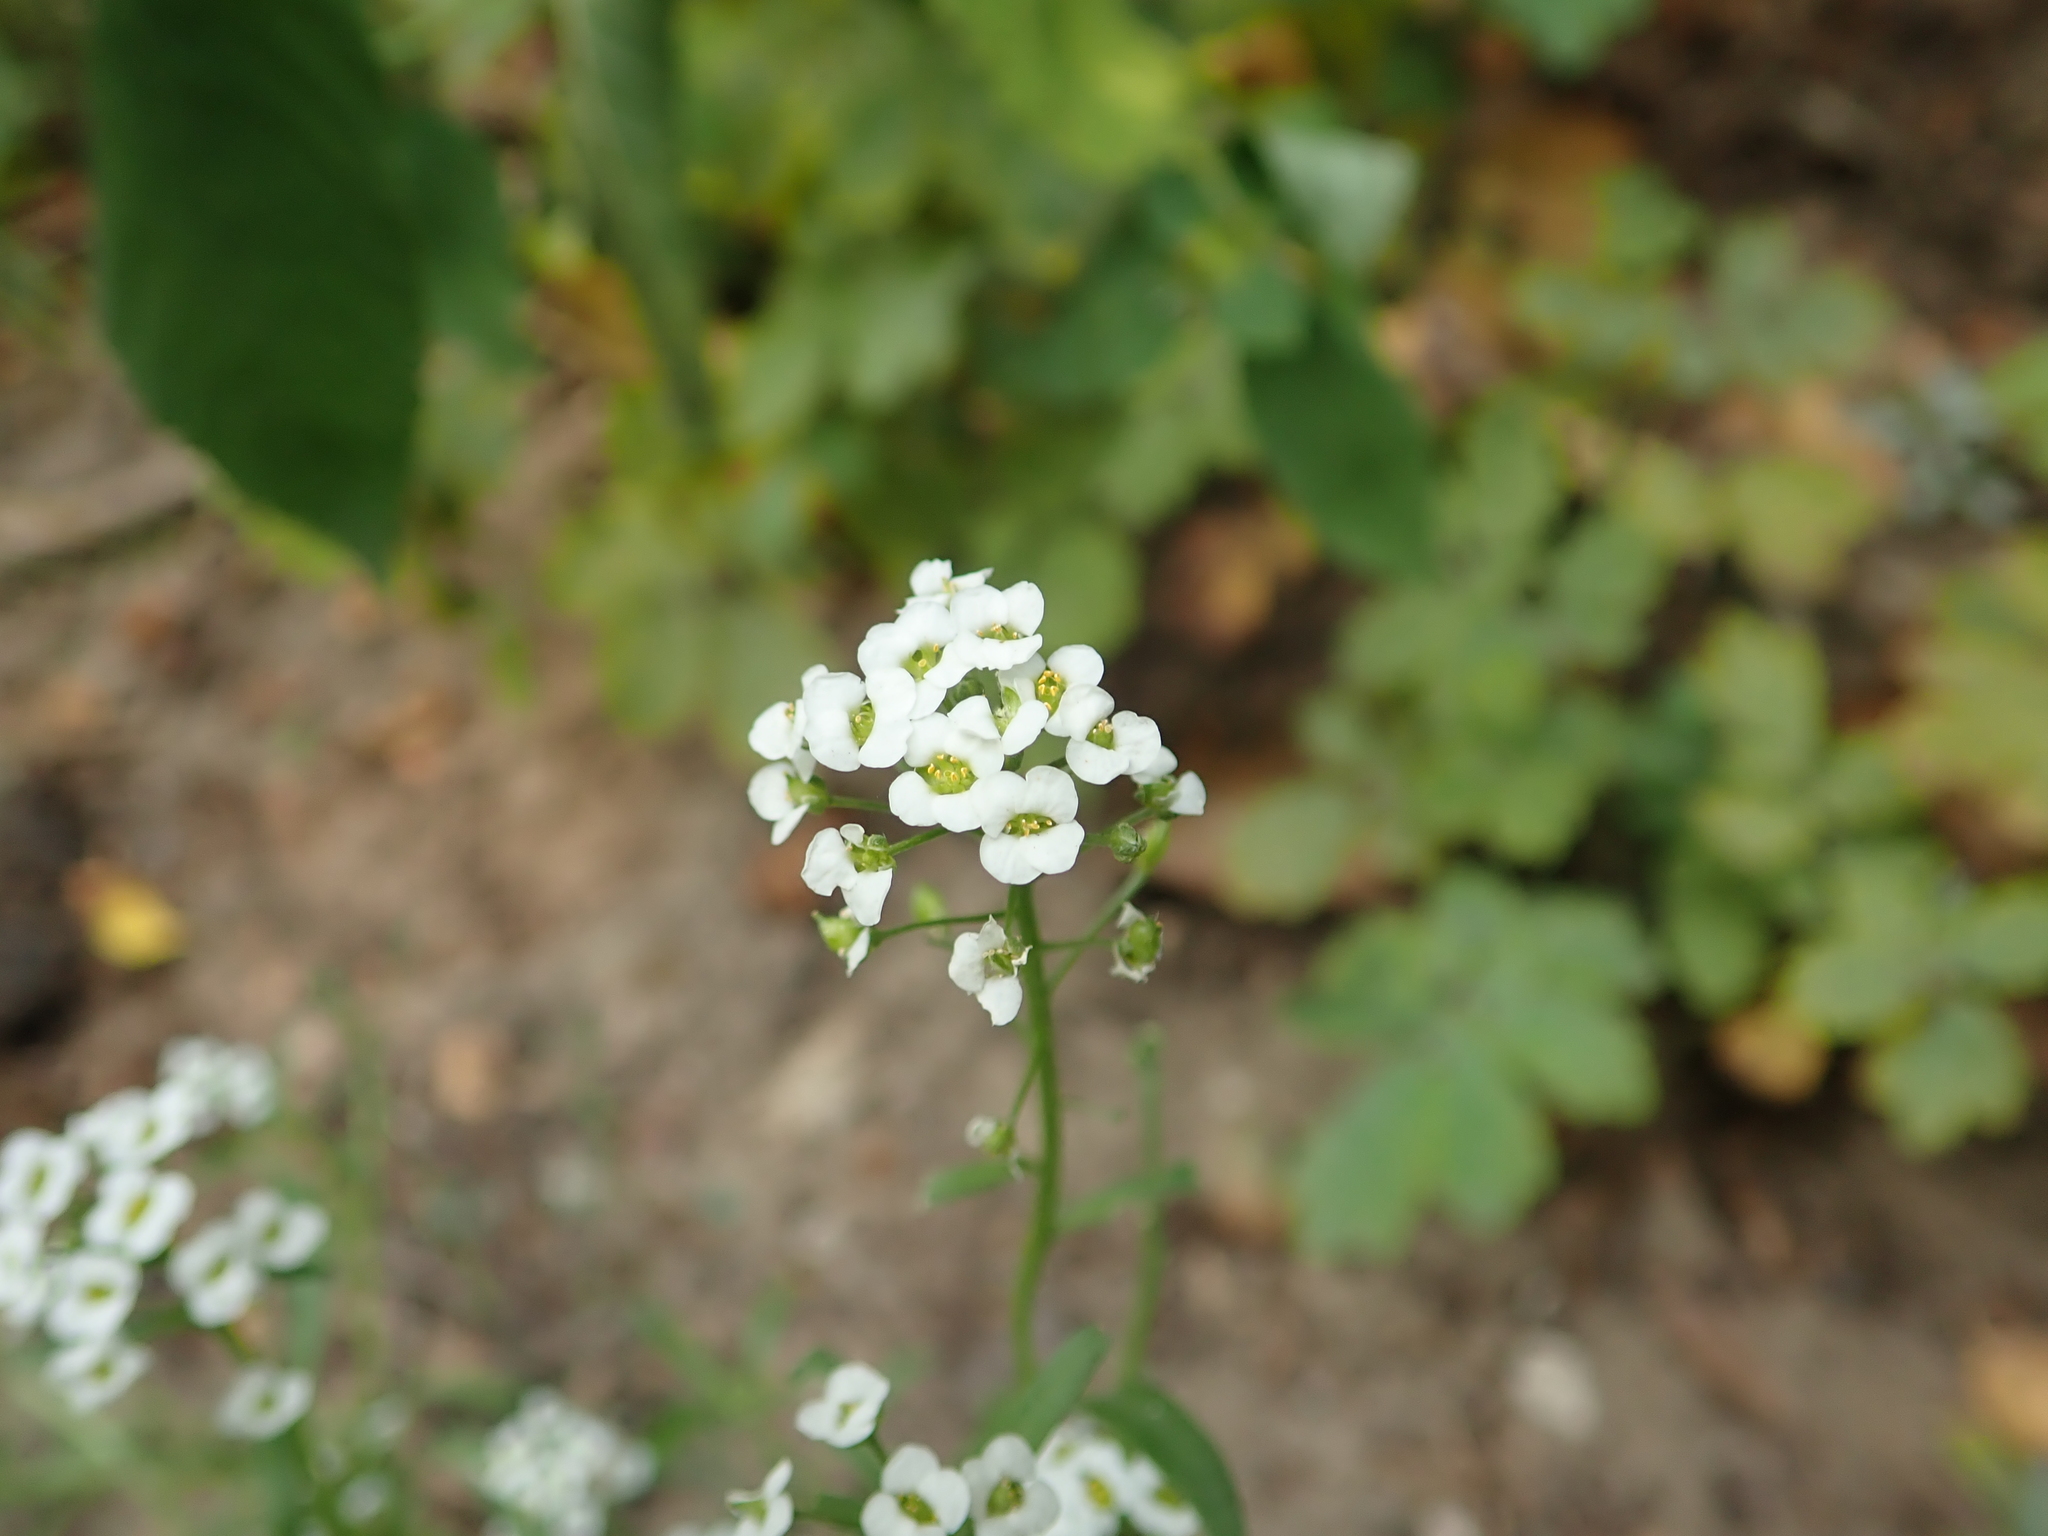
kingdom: Plantae
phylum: Tracheophyta
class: Magnoliopsida
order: Brassicales
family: Brassicaceae
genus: Lobularia
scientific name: Lobularia maritima
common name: Sweet alison
